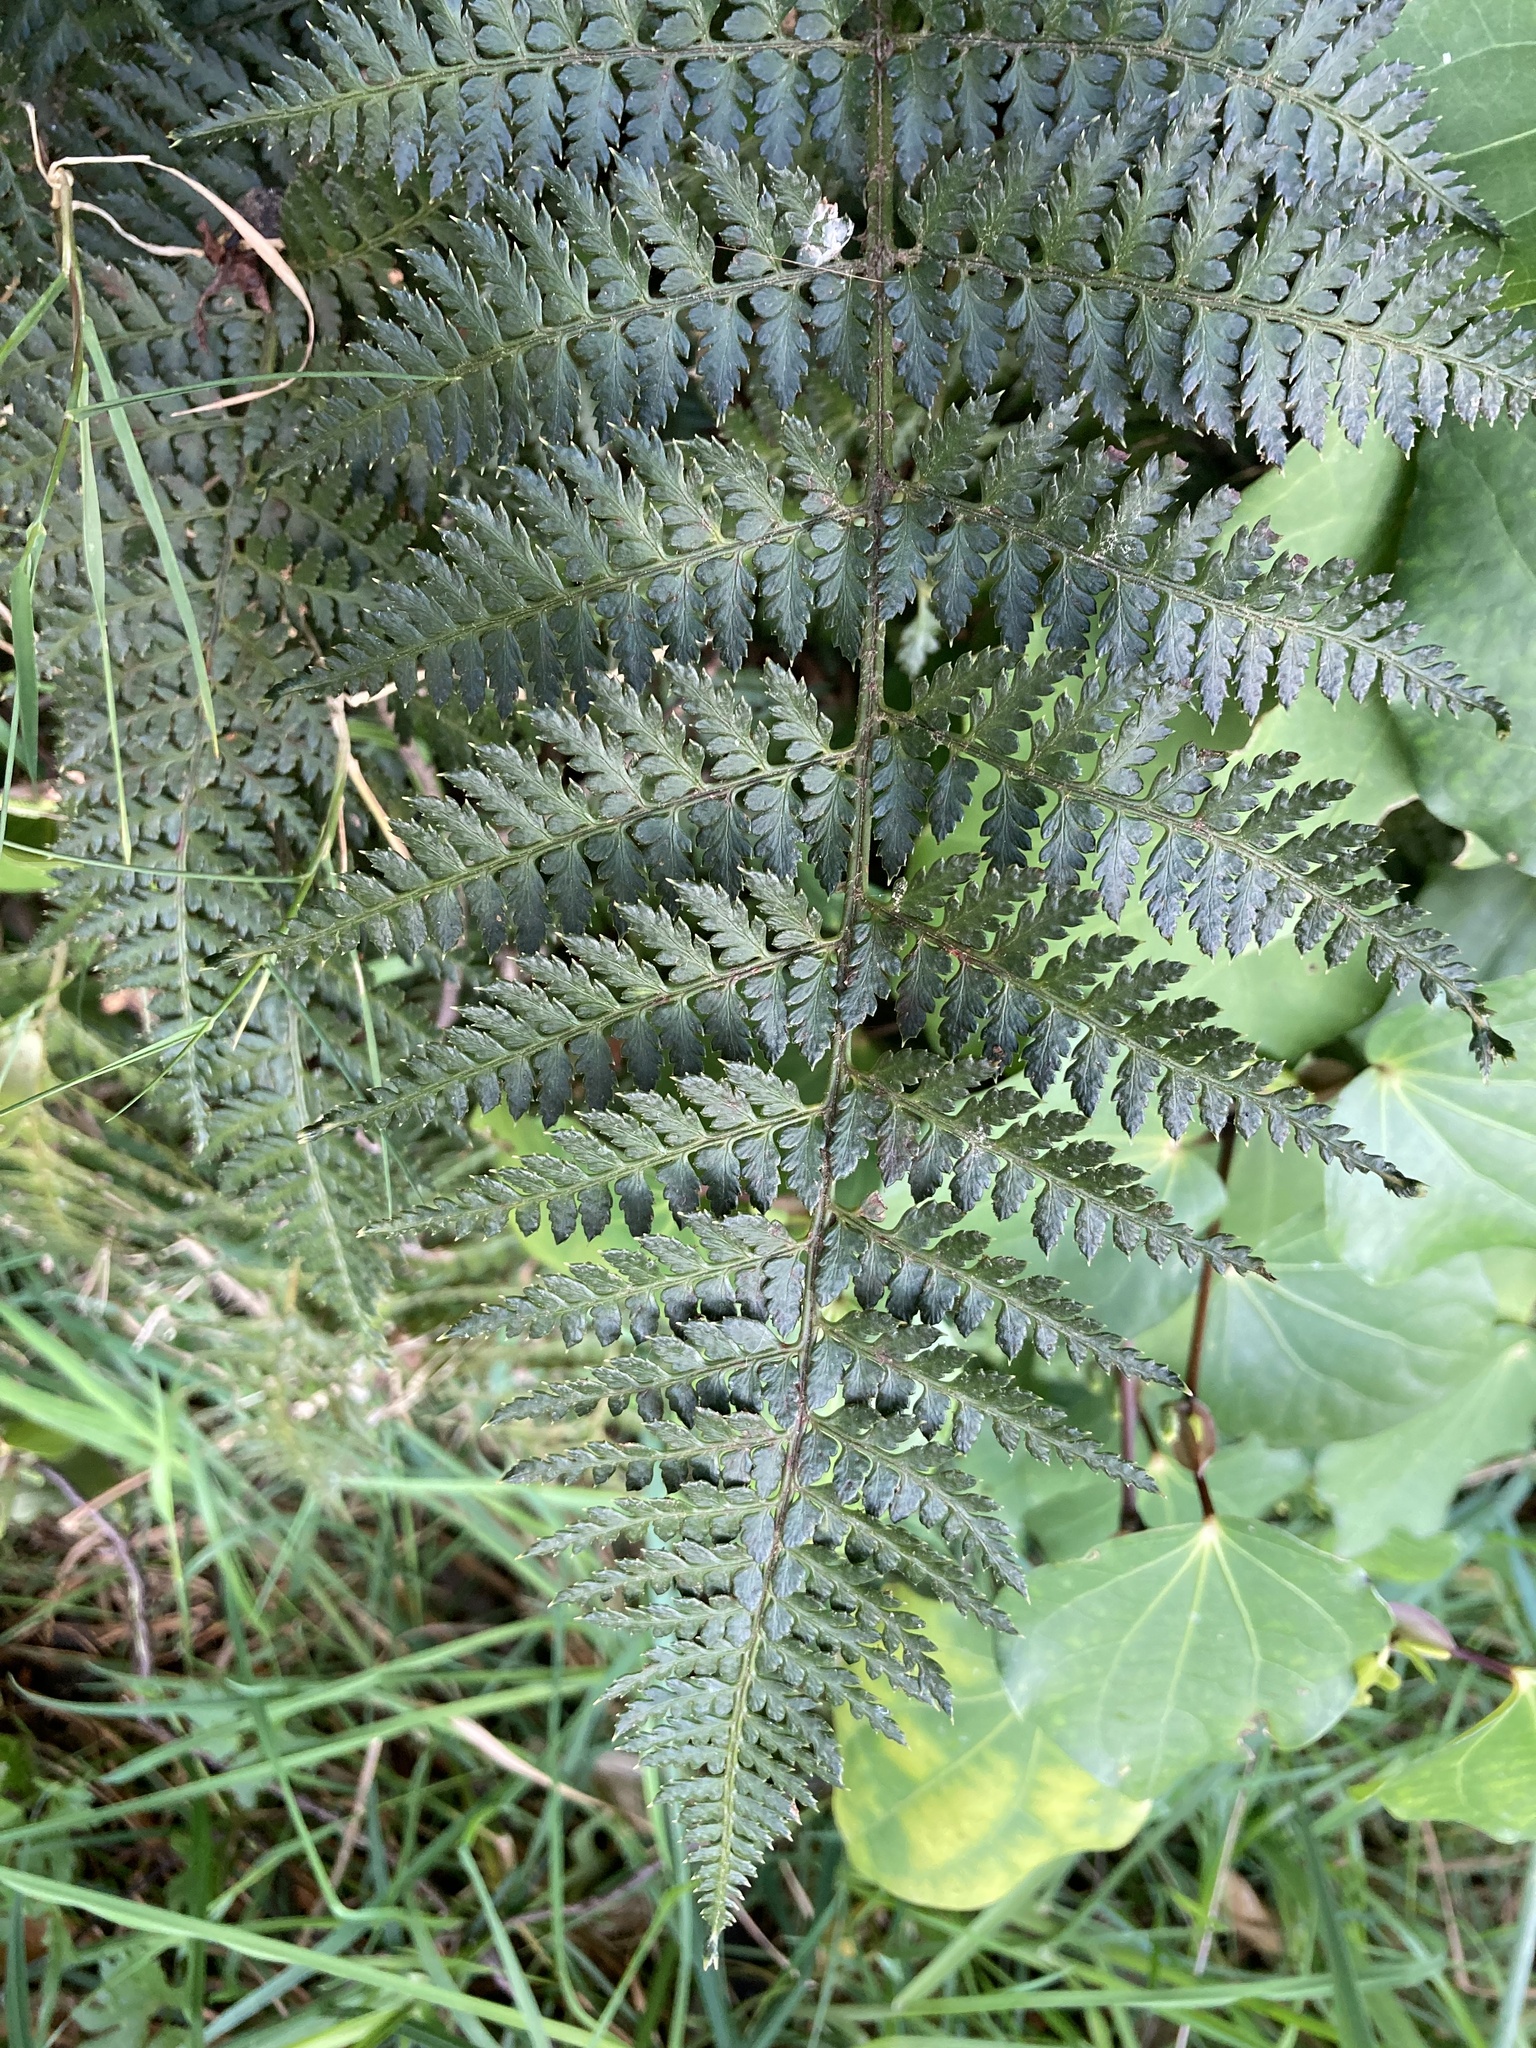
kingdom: Plantae
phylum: Tracheophyta
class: Polypodiopsida
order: Polypodiales
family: Dryopteridaceae
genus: Polystichum
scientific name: Polystichum oculatum
